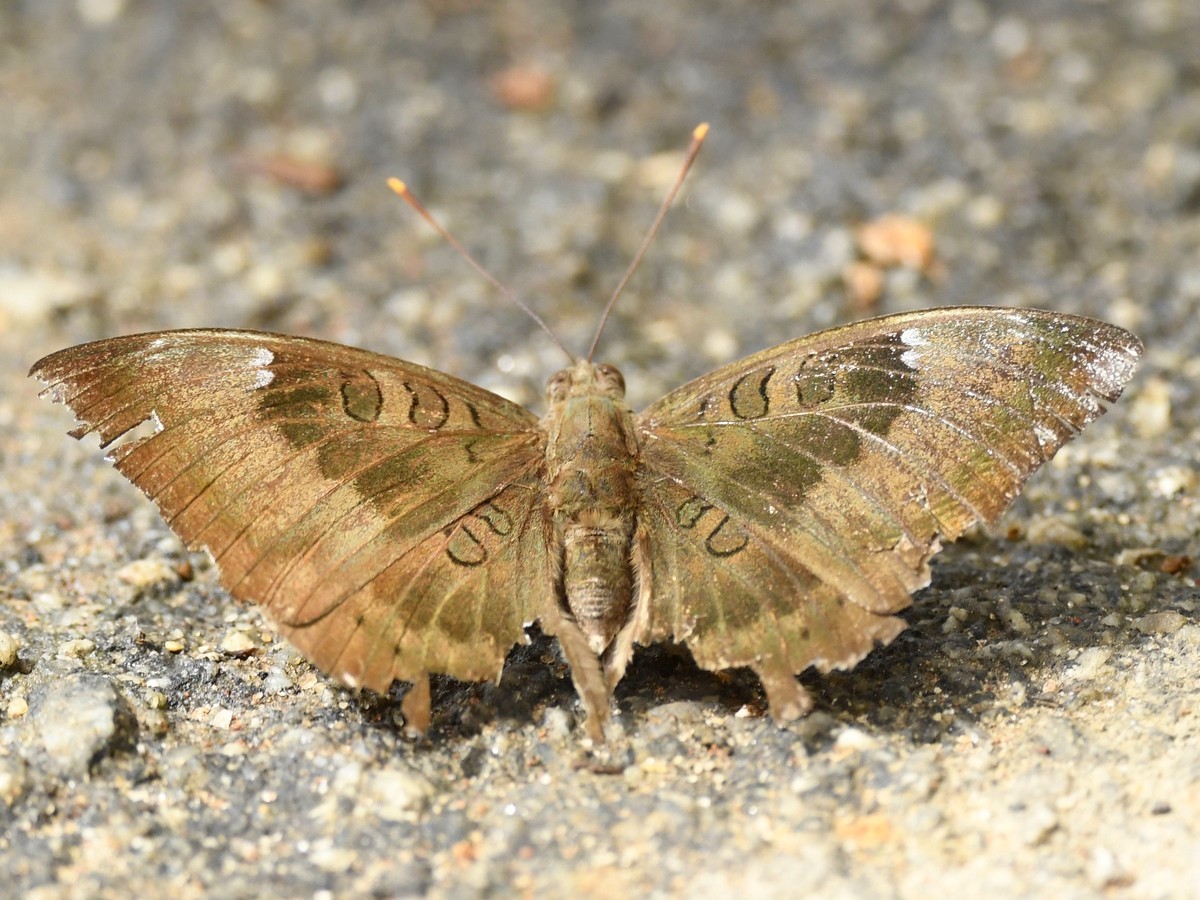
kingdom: Animalia
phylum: Arthropoda
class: Insecta
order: Lepidoptera
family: Nymphalidae
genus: Euthalia
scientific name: Euthalia aconthea
